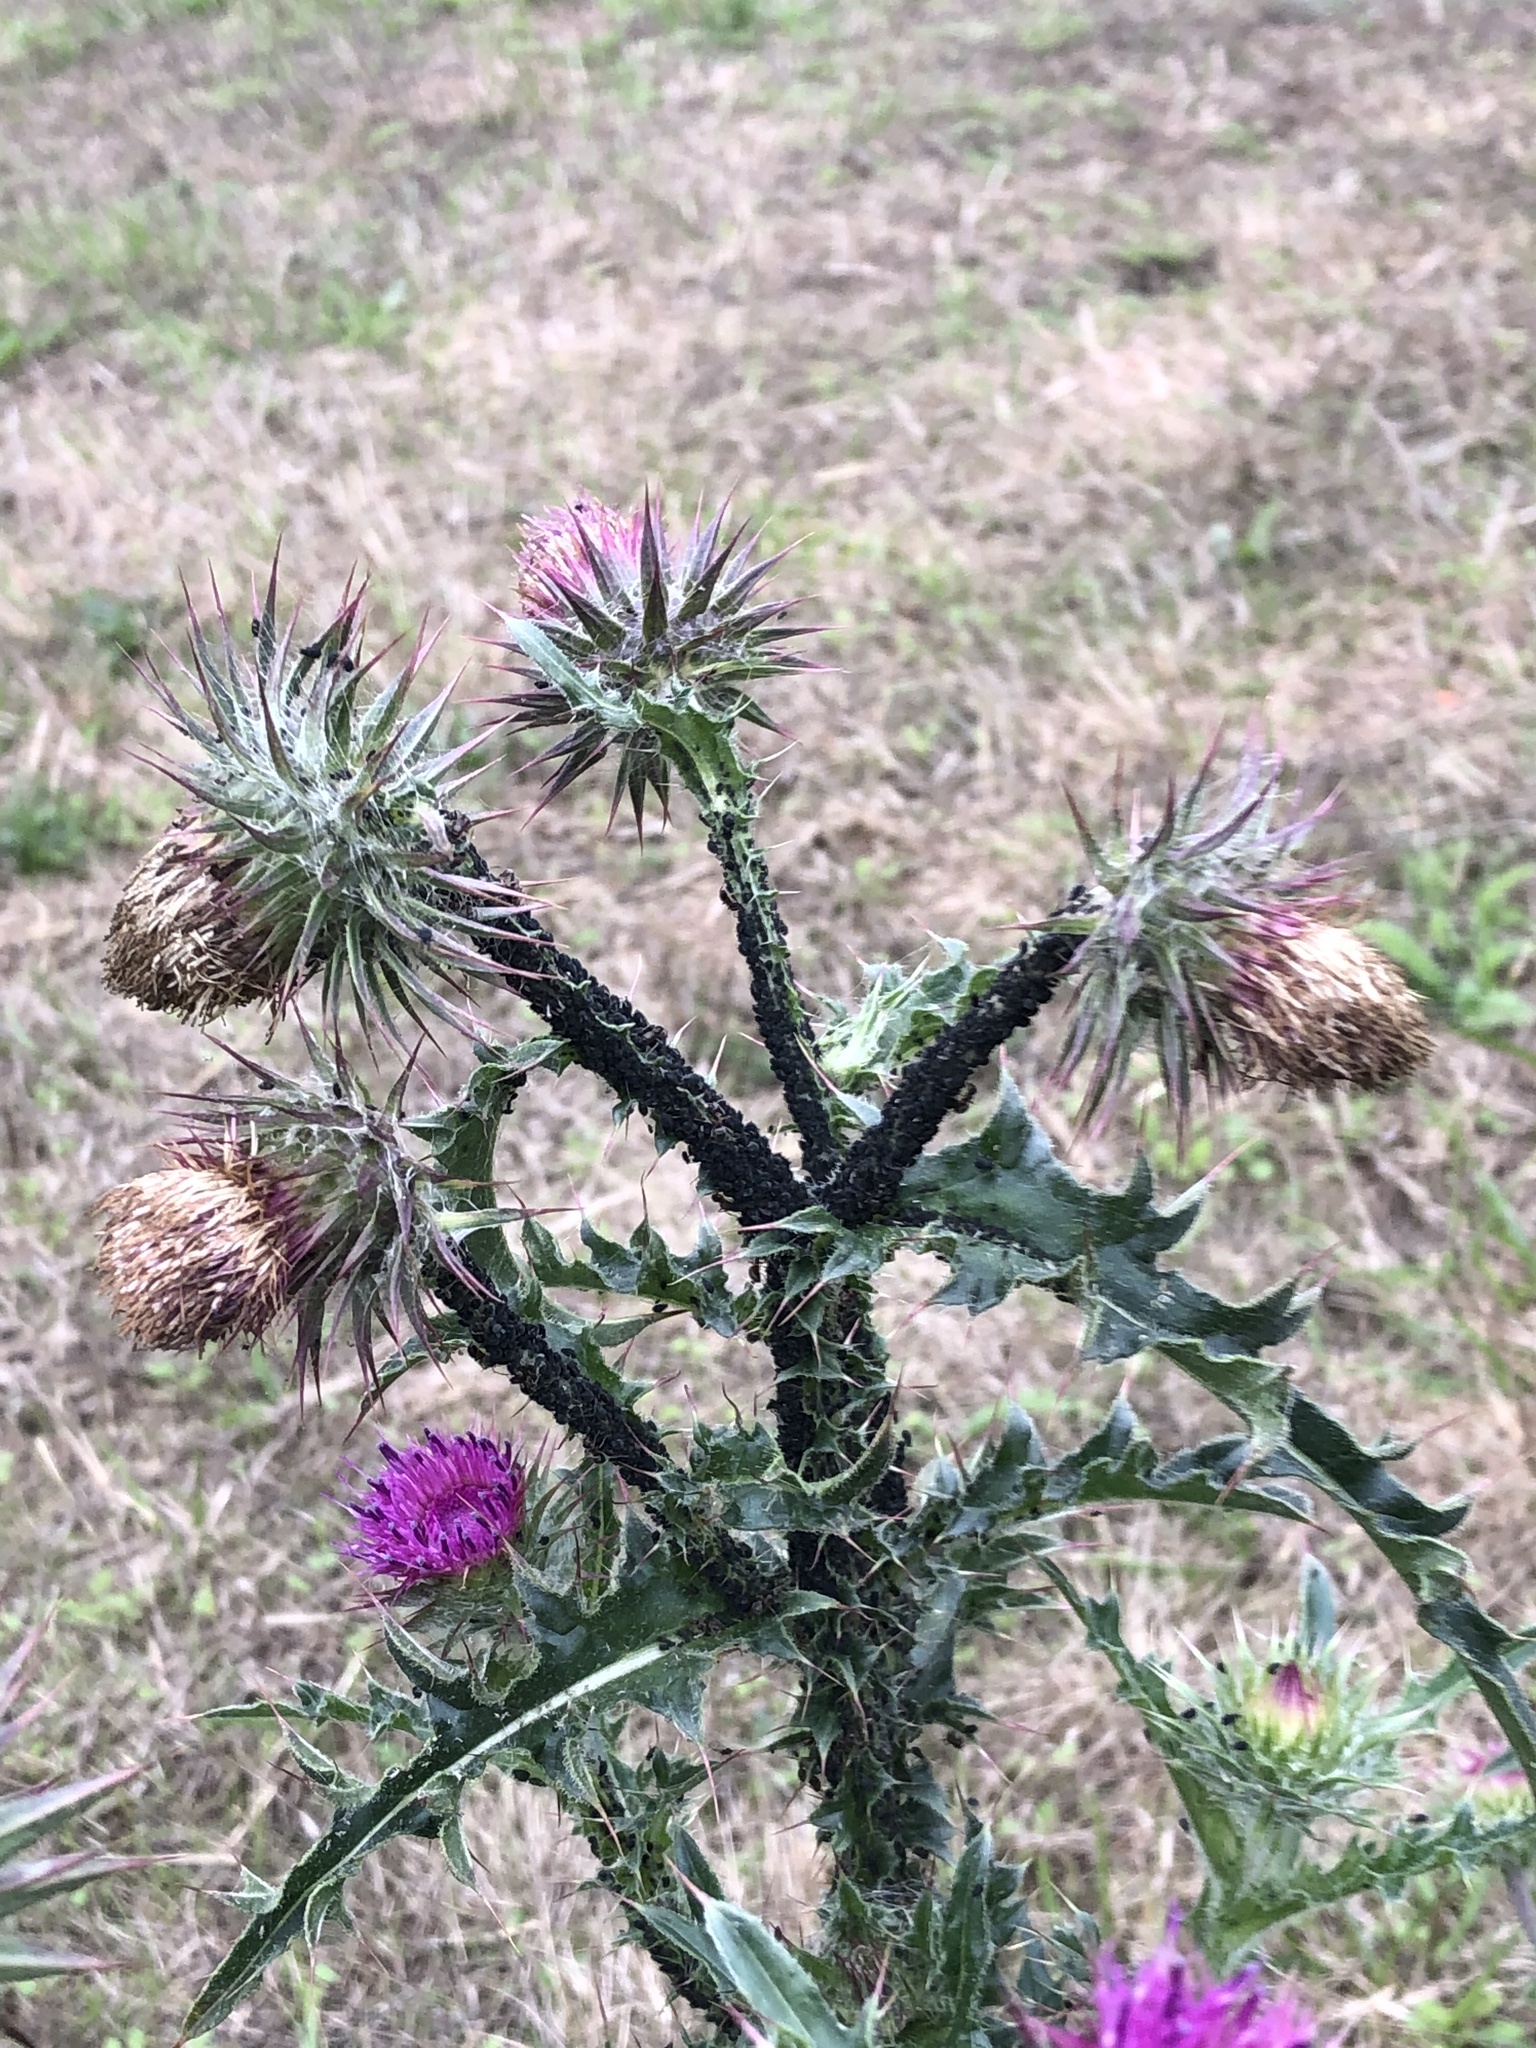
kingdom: Plantae
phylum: Tracheophyta
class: Magnoliopsida
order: Asterales
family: Asteraceae
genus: Carduus
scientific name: Carduus nutans
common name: Musk thistle
